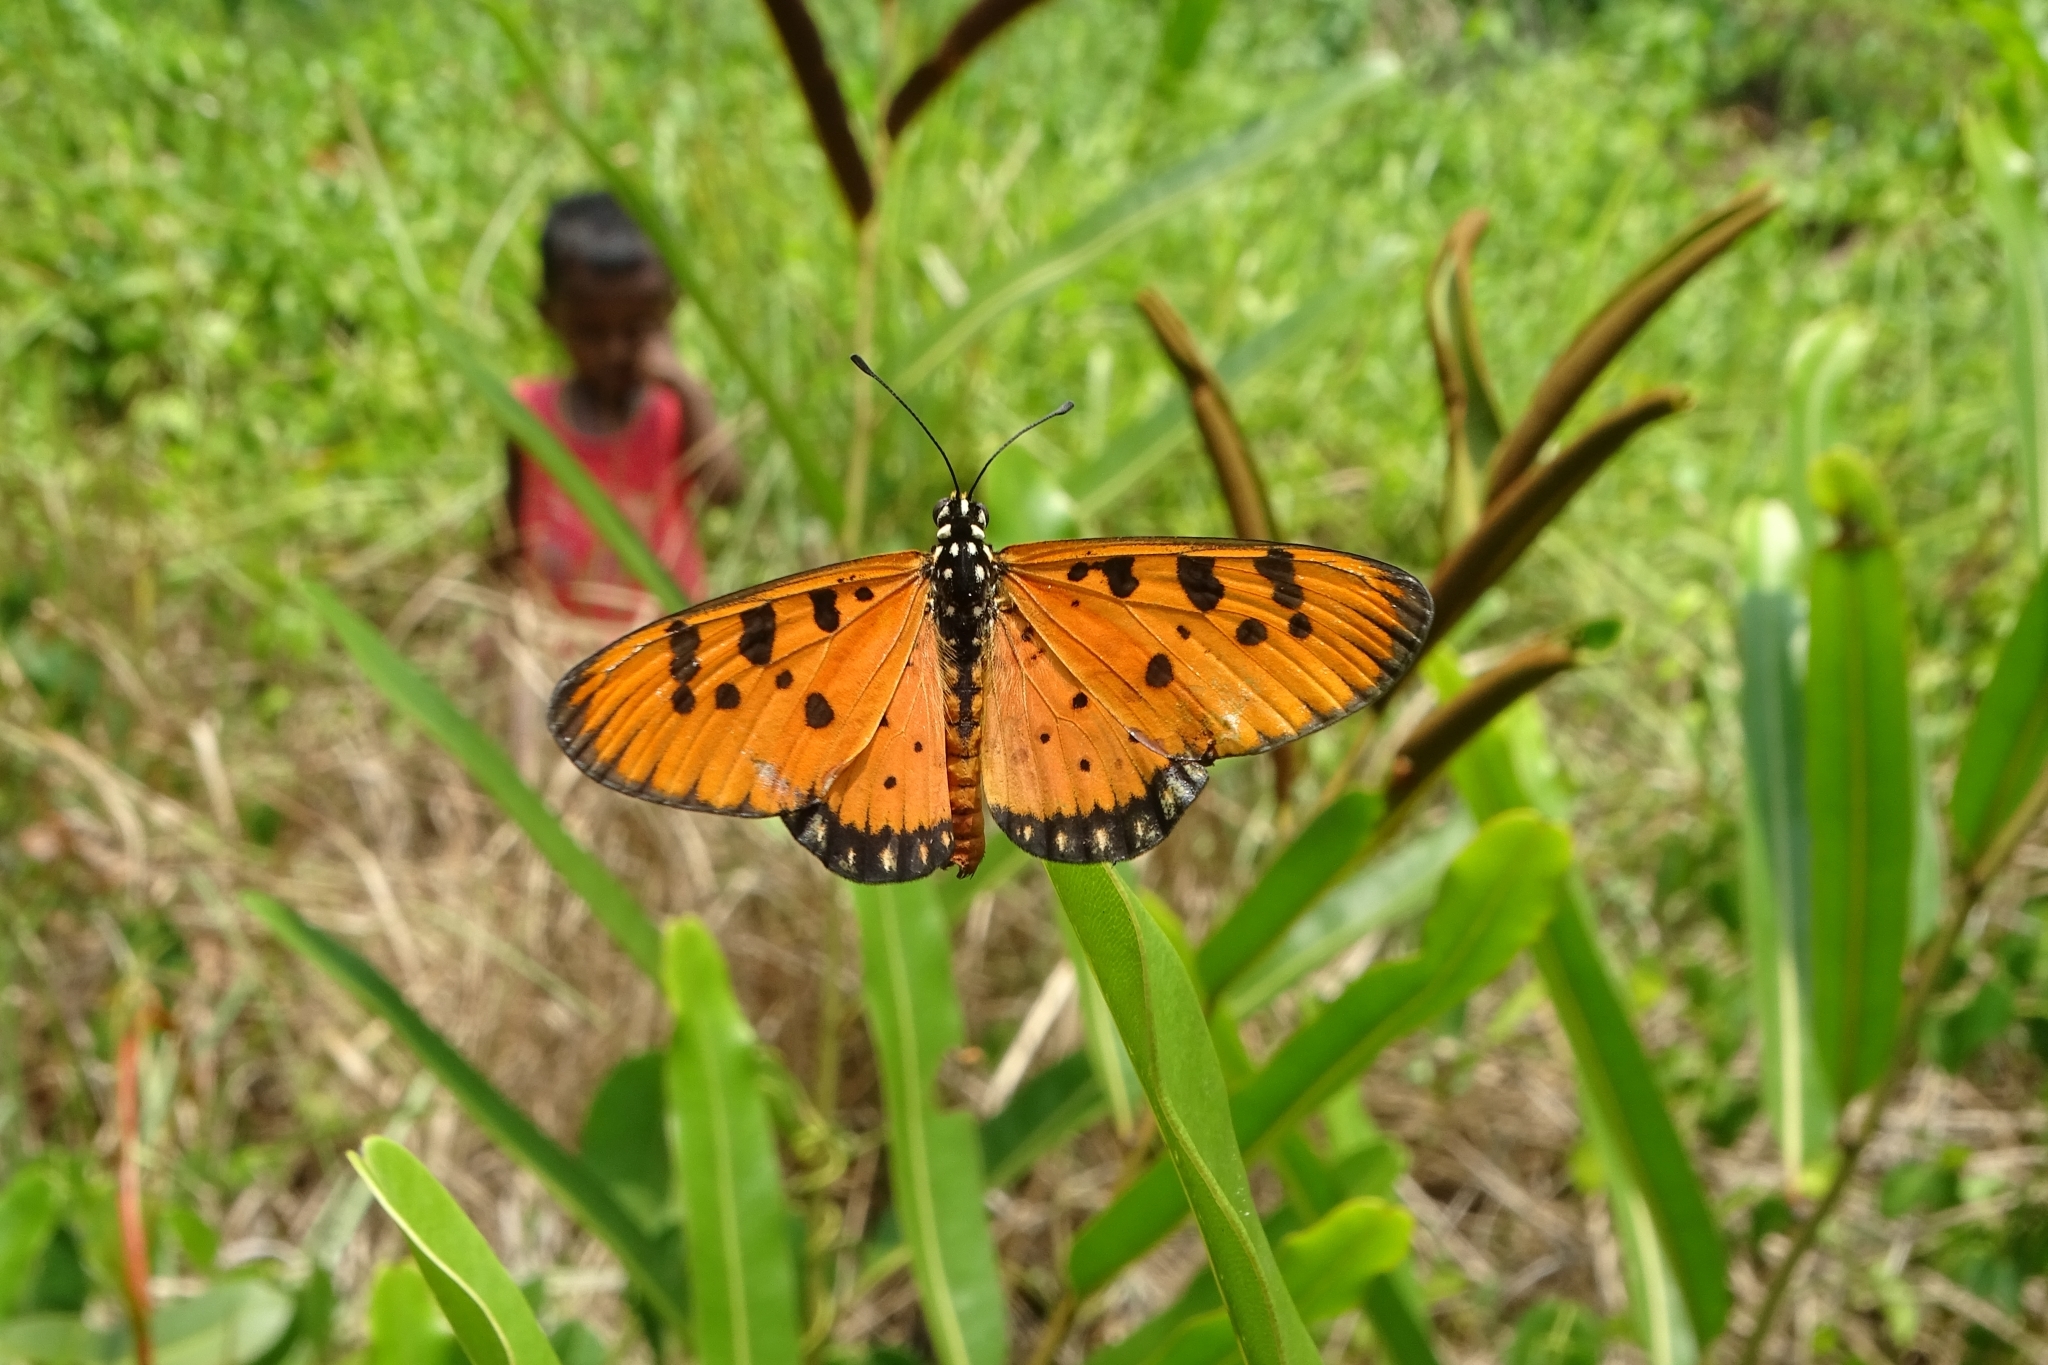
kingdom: Animalia
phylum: Arthropoda
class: Insecta
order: Lepidoptera
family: Nymphalidae
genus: Acraea
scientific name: Acraea terpsicore
